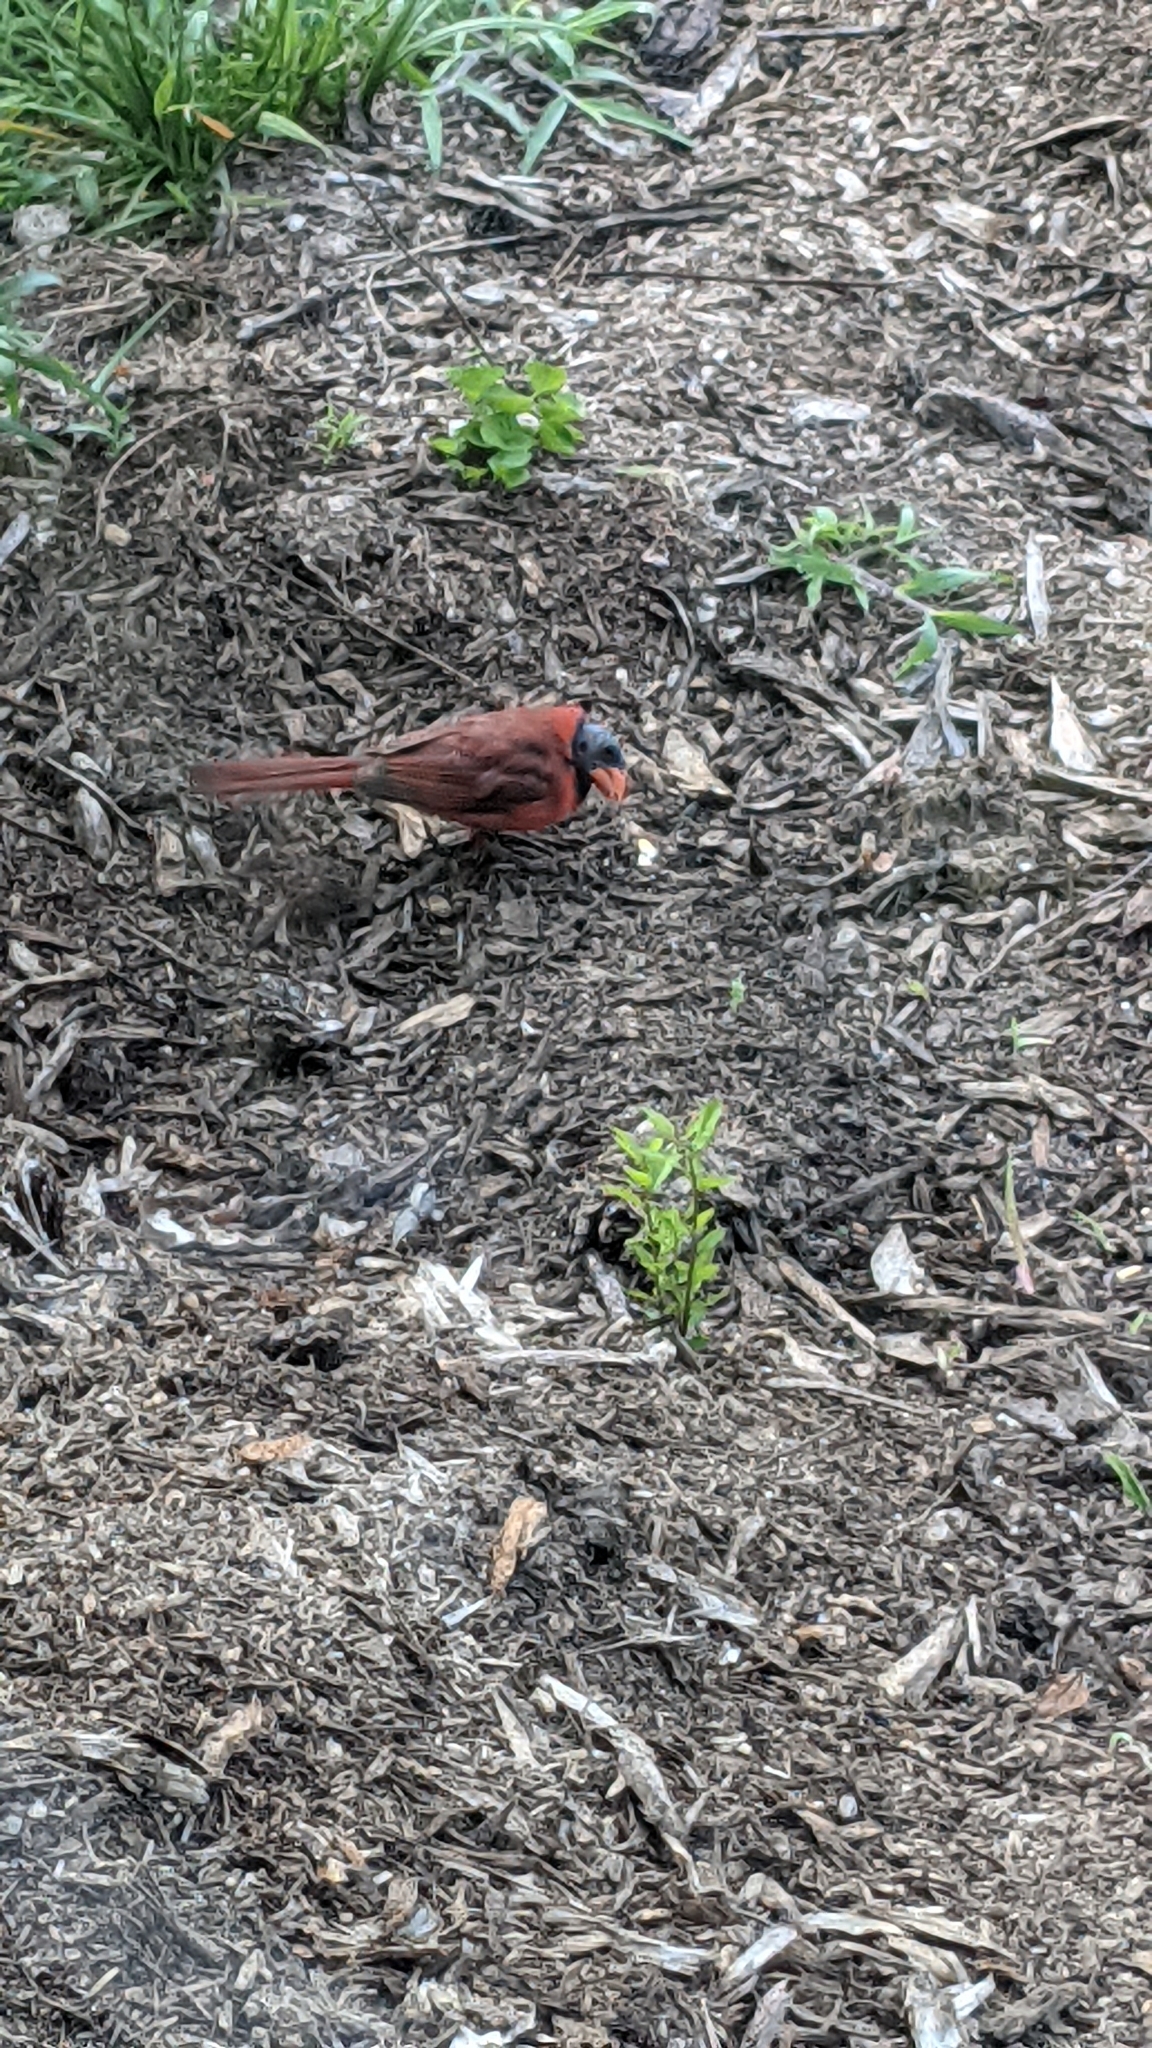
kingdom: Animalia
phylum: Chordata
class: Aves
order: Passeriformes
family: Cardinalidae
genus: Cardinalis
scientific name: Cardinalis cardinalis
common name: Northern cardinal
